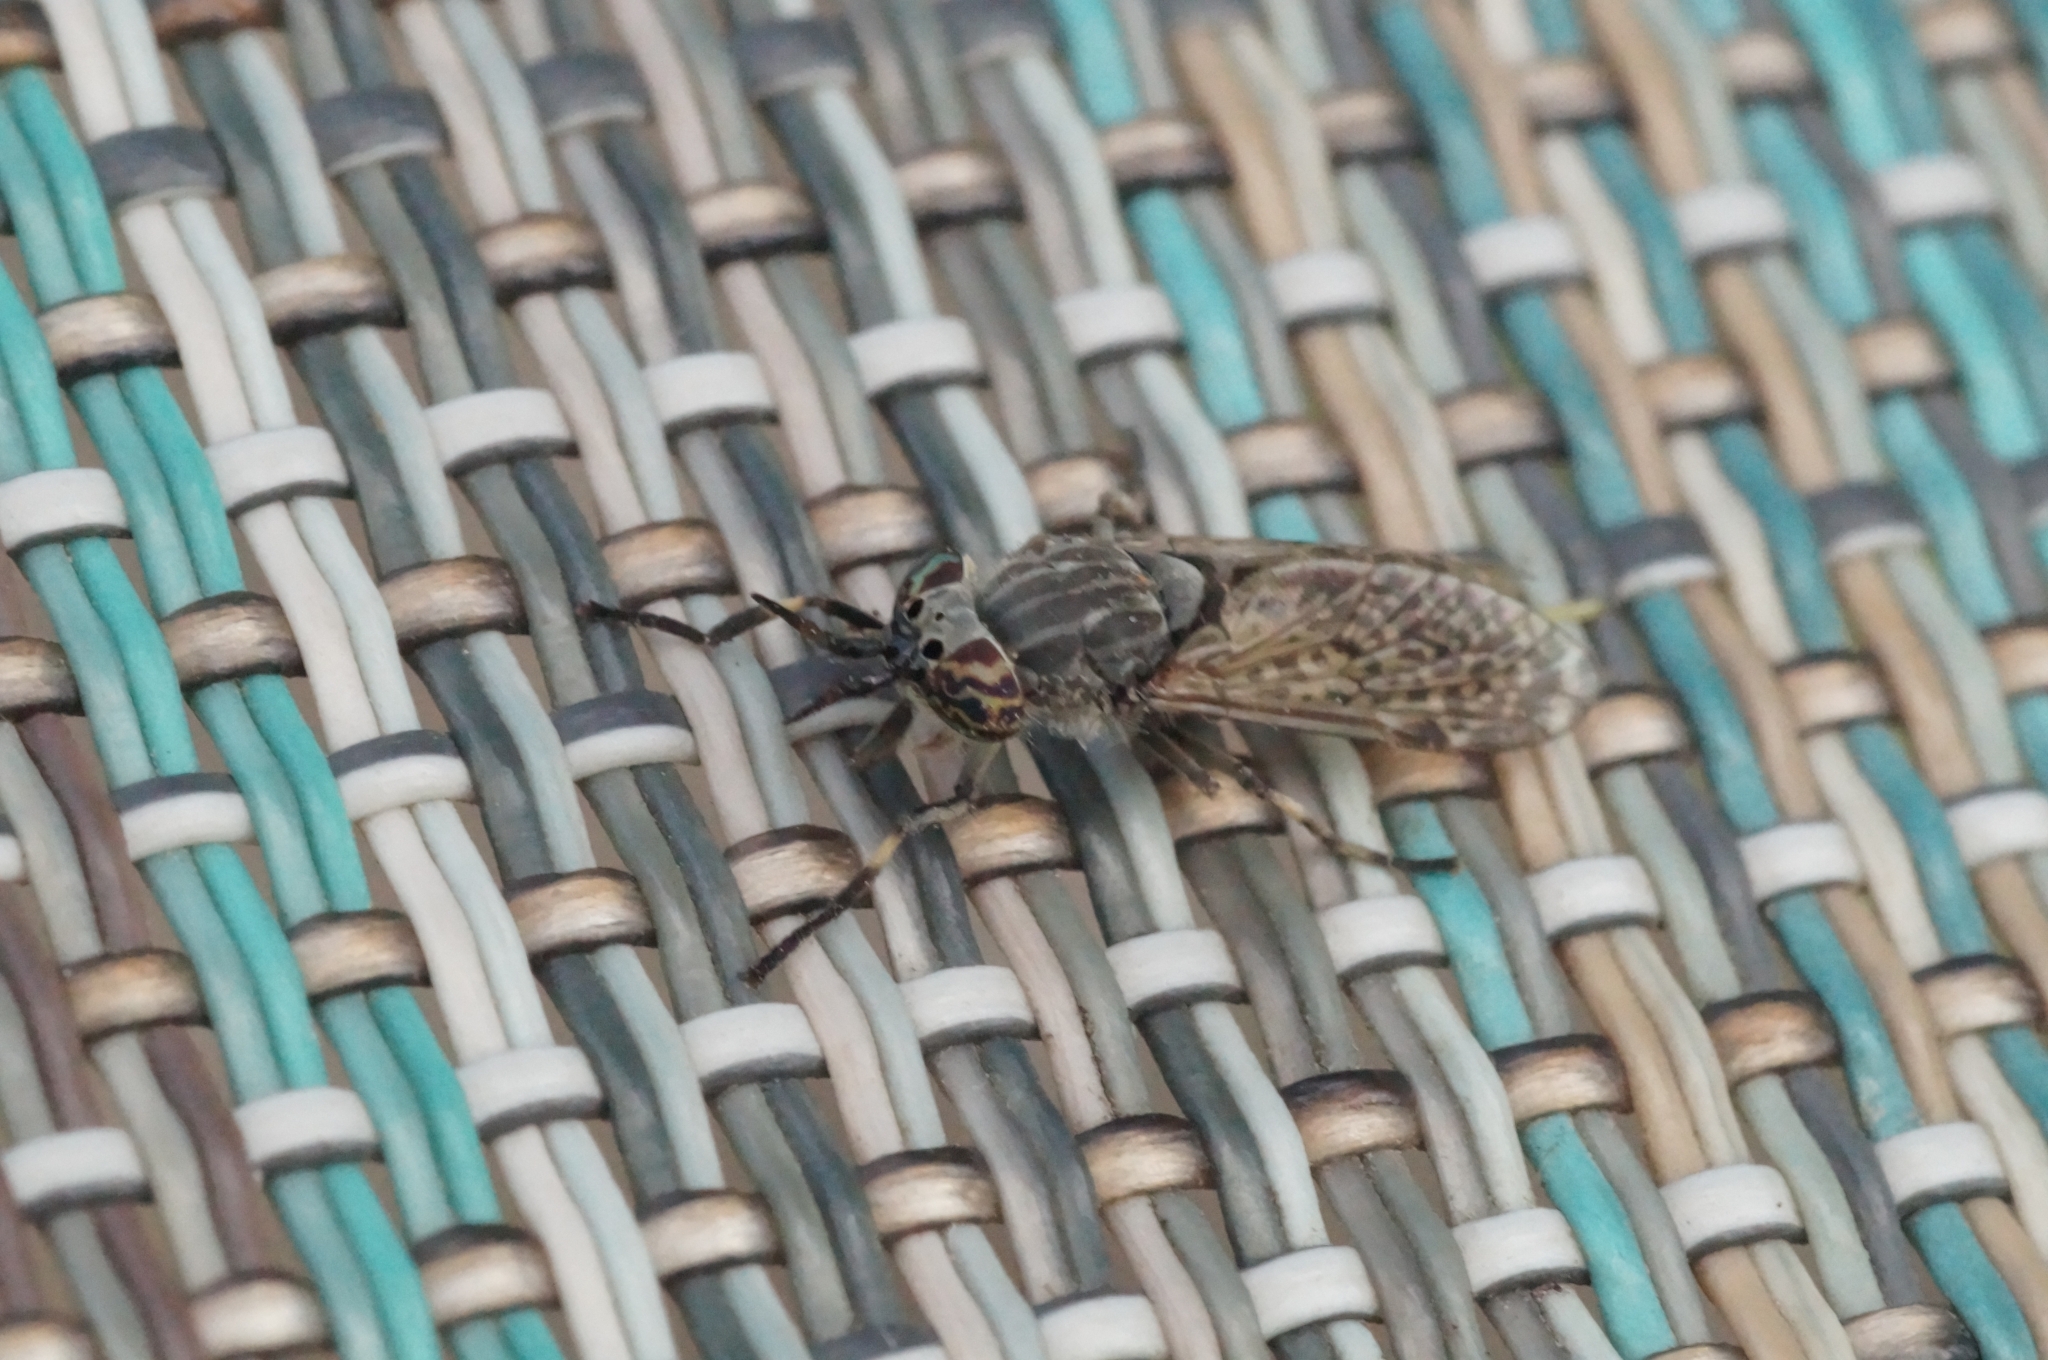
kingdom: Animalia
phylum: Arthropoda
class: Insecta
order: Diptera
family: Tabanidae
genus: Haematopota
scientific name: Haematopota pluvialis
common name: Common horse fly
